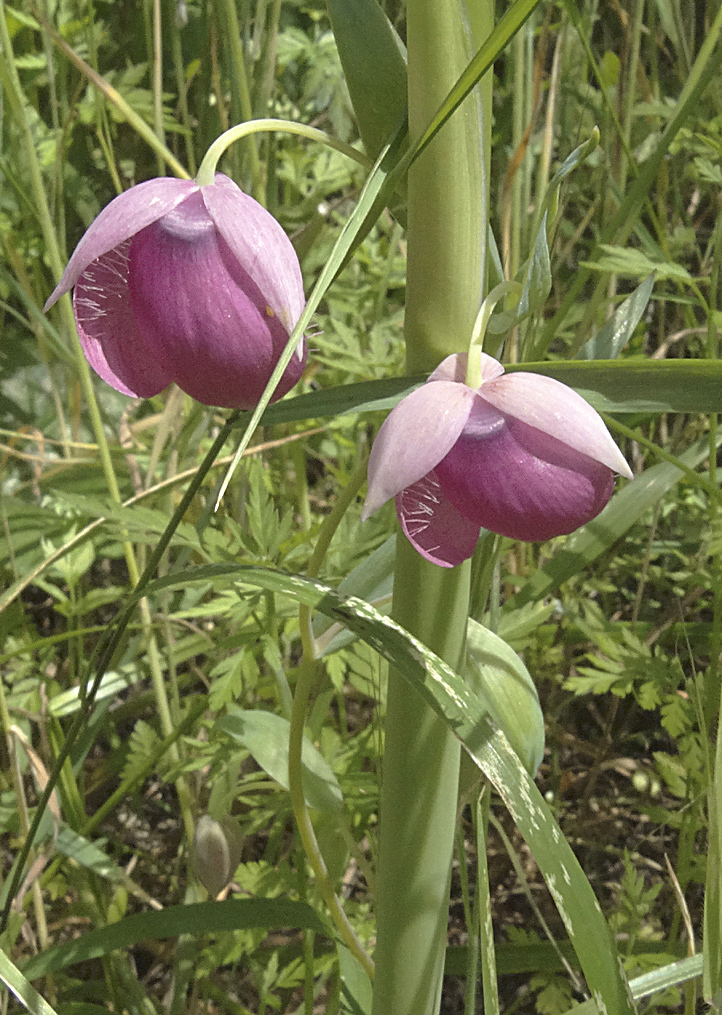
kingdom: Plantae
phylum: Tracheophyta
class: Liliopsida
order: Liliales
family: Liliaceae
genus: Calochortus
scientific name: Calochortus amoenus
